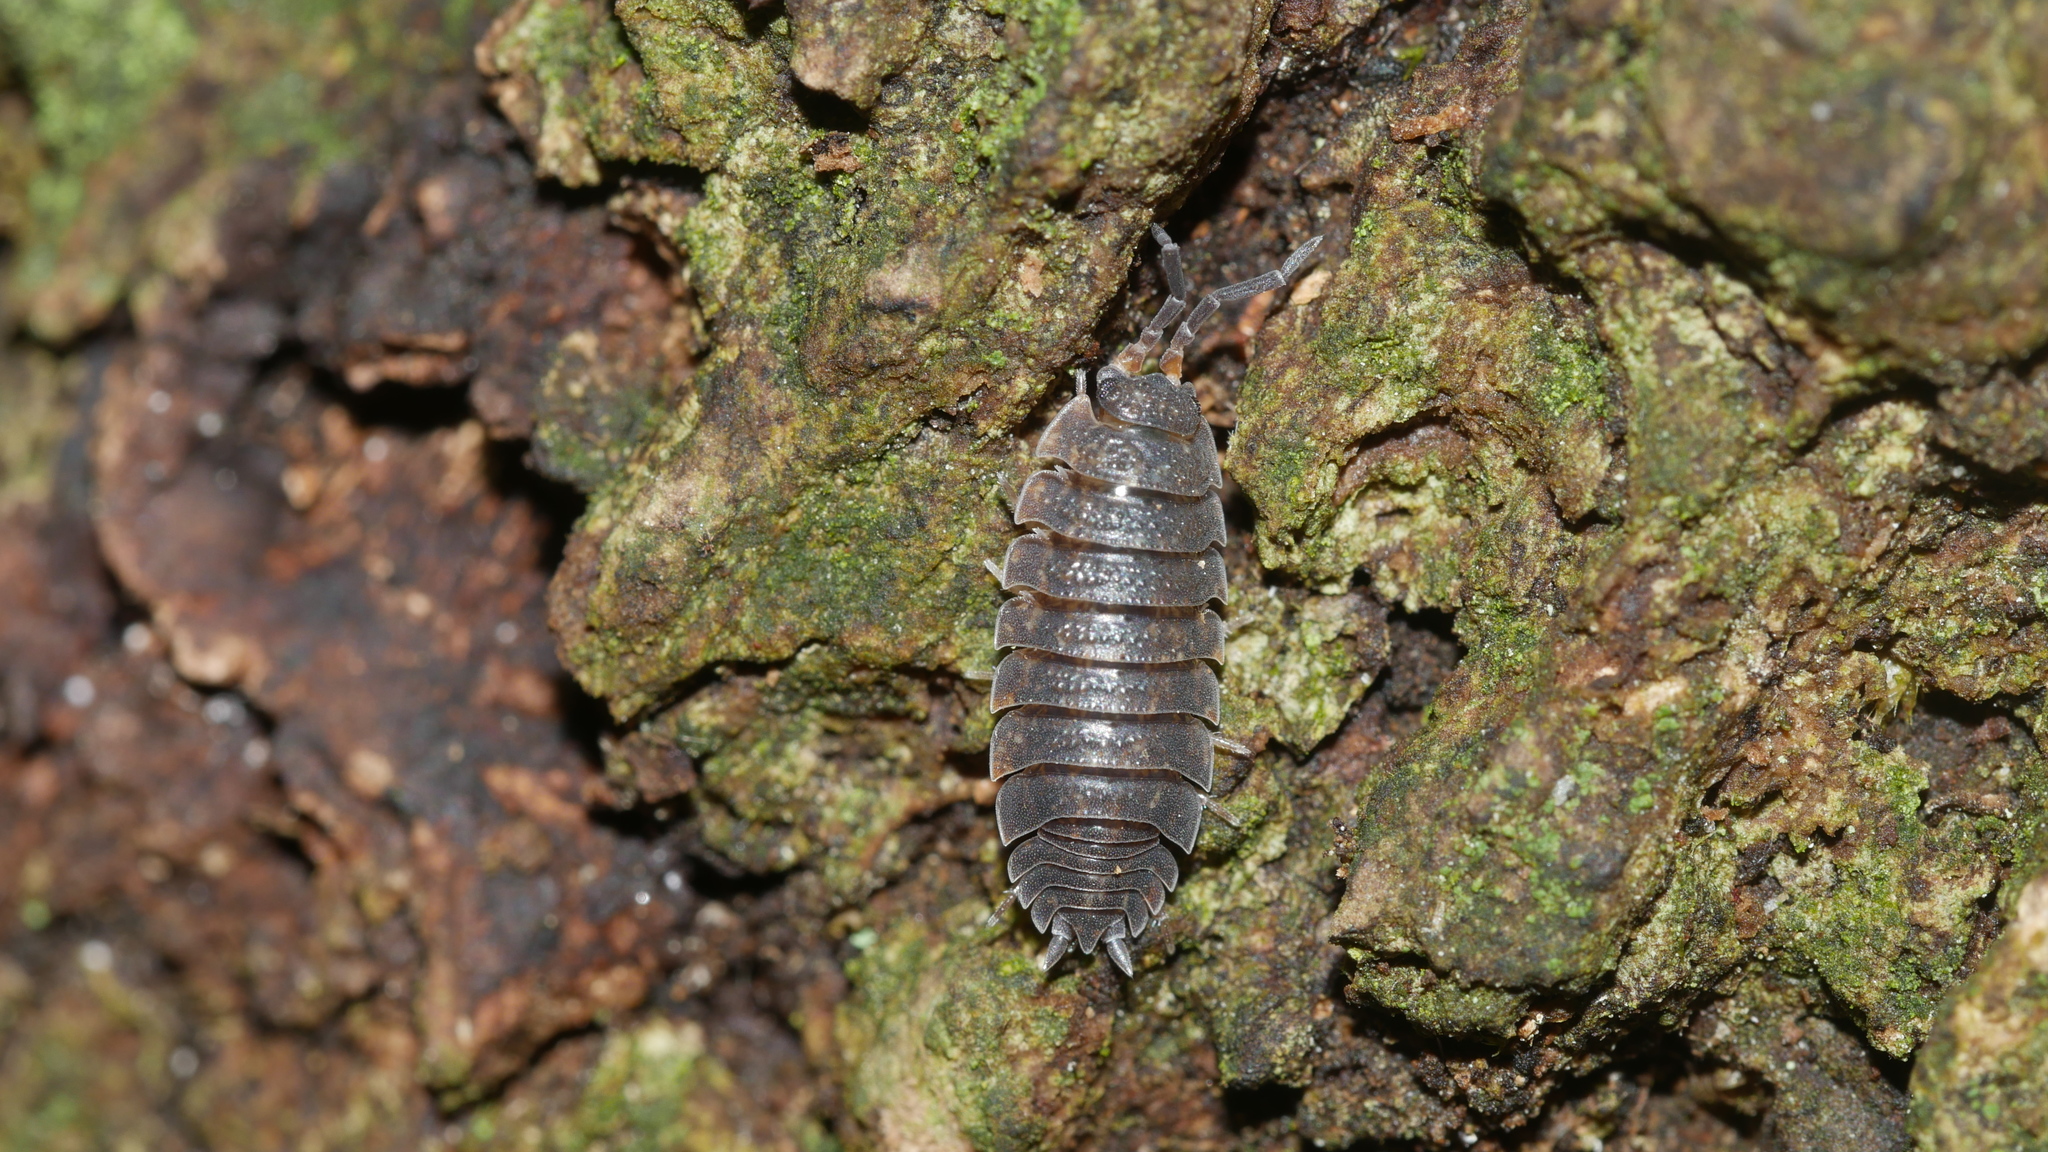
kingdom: Animalia
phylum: Arthropoda
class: Malacostraca
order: Isopoda
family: Porcellionidae
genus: Porcellio
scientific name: Porcellio scaber
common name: Common rough woodlouse
